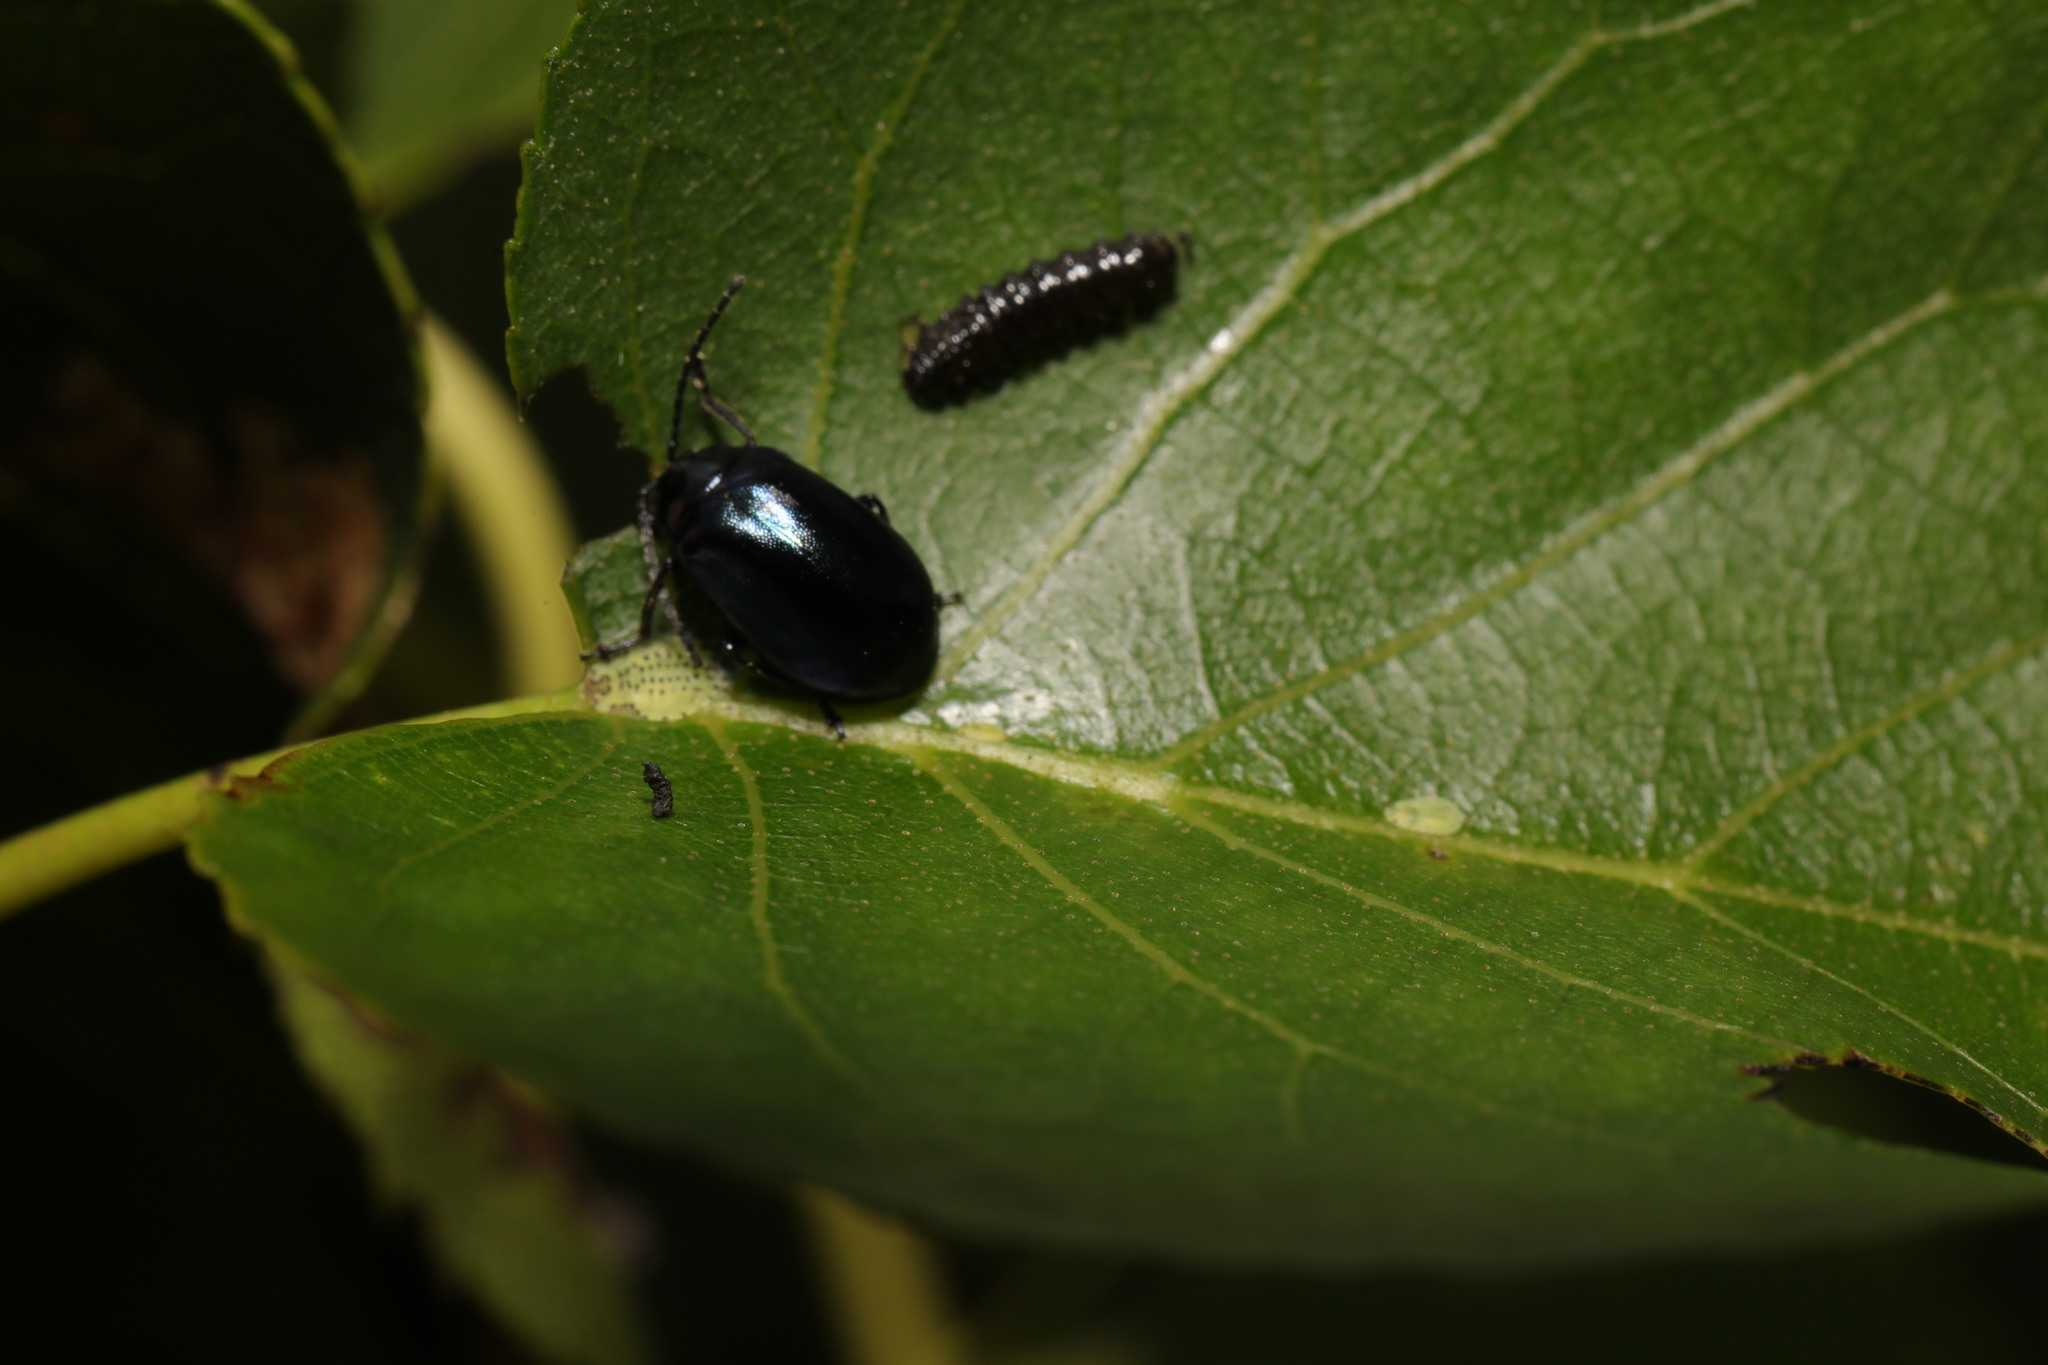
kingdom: Animalia
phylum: Arthropoda
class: Insecta
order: Coleoptera
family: Chrysomelidae
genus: Agelastica
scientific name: Agelastica alni
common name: Alder leaf beetle
